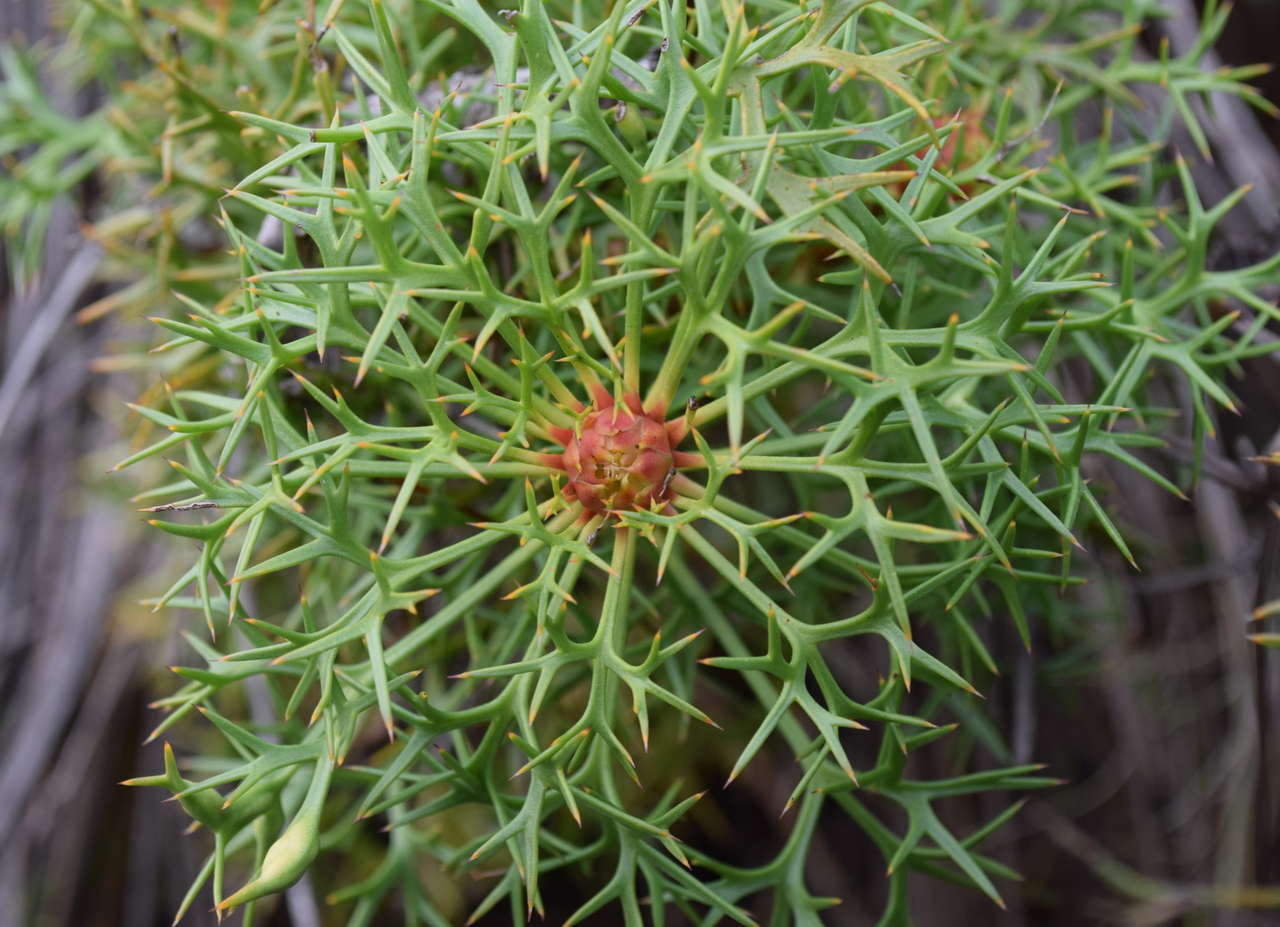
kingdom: Plantae
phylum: Tracheophyta
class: Magnoliopsida
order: Proteales
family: Proteaceae
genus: Isopogon
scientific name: Isopogon ceratophyllus
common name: Horny cone-bush
